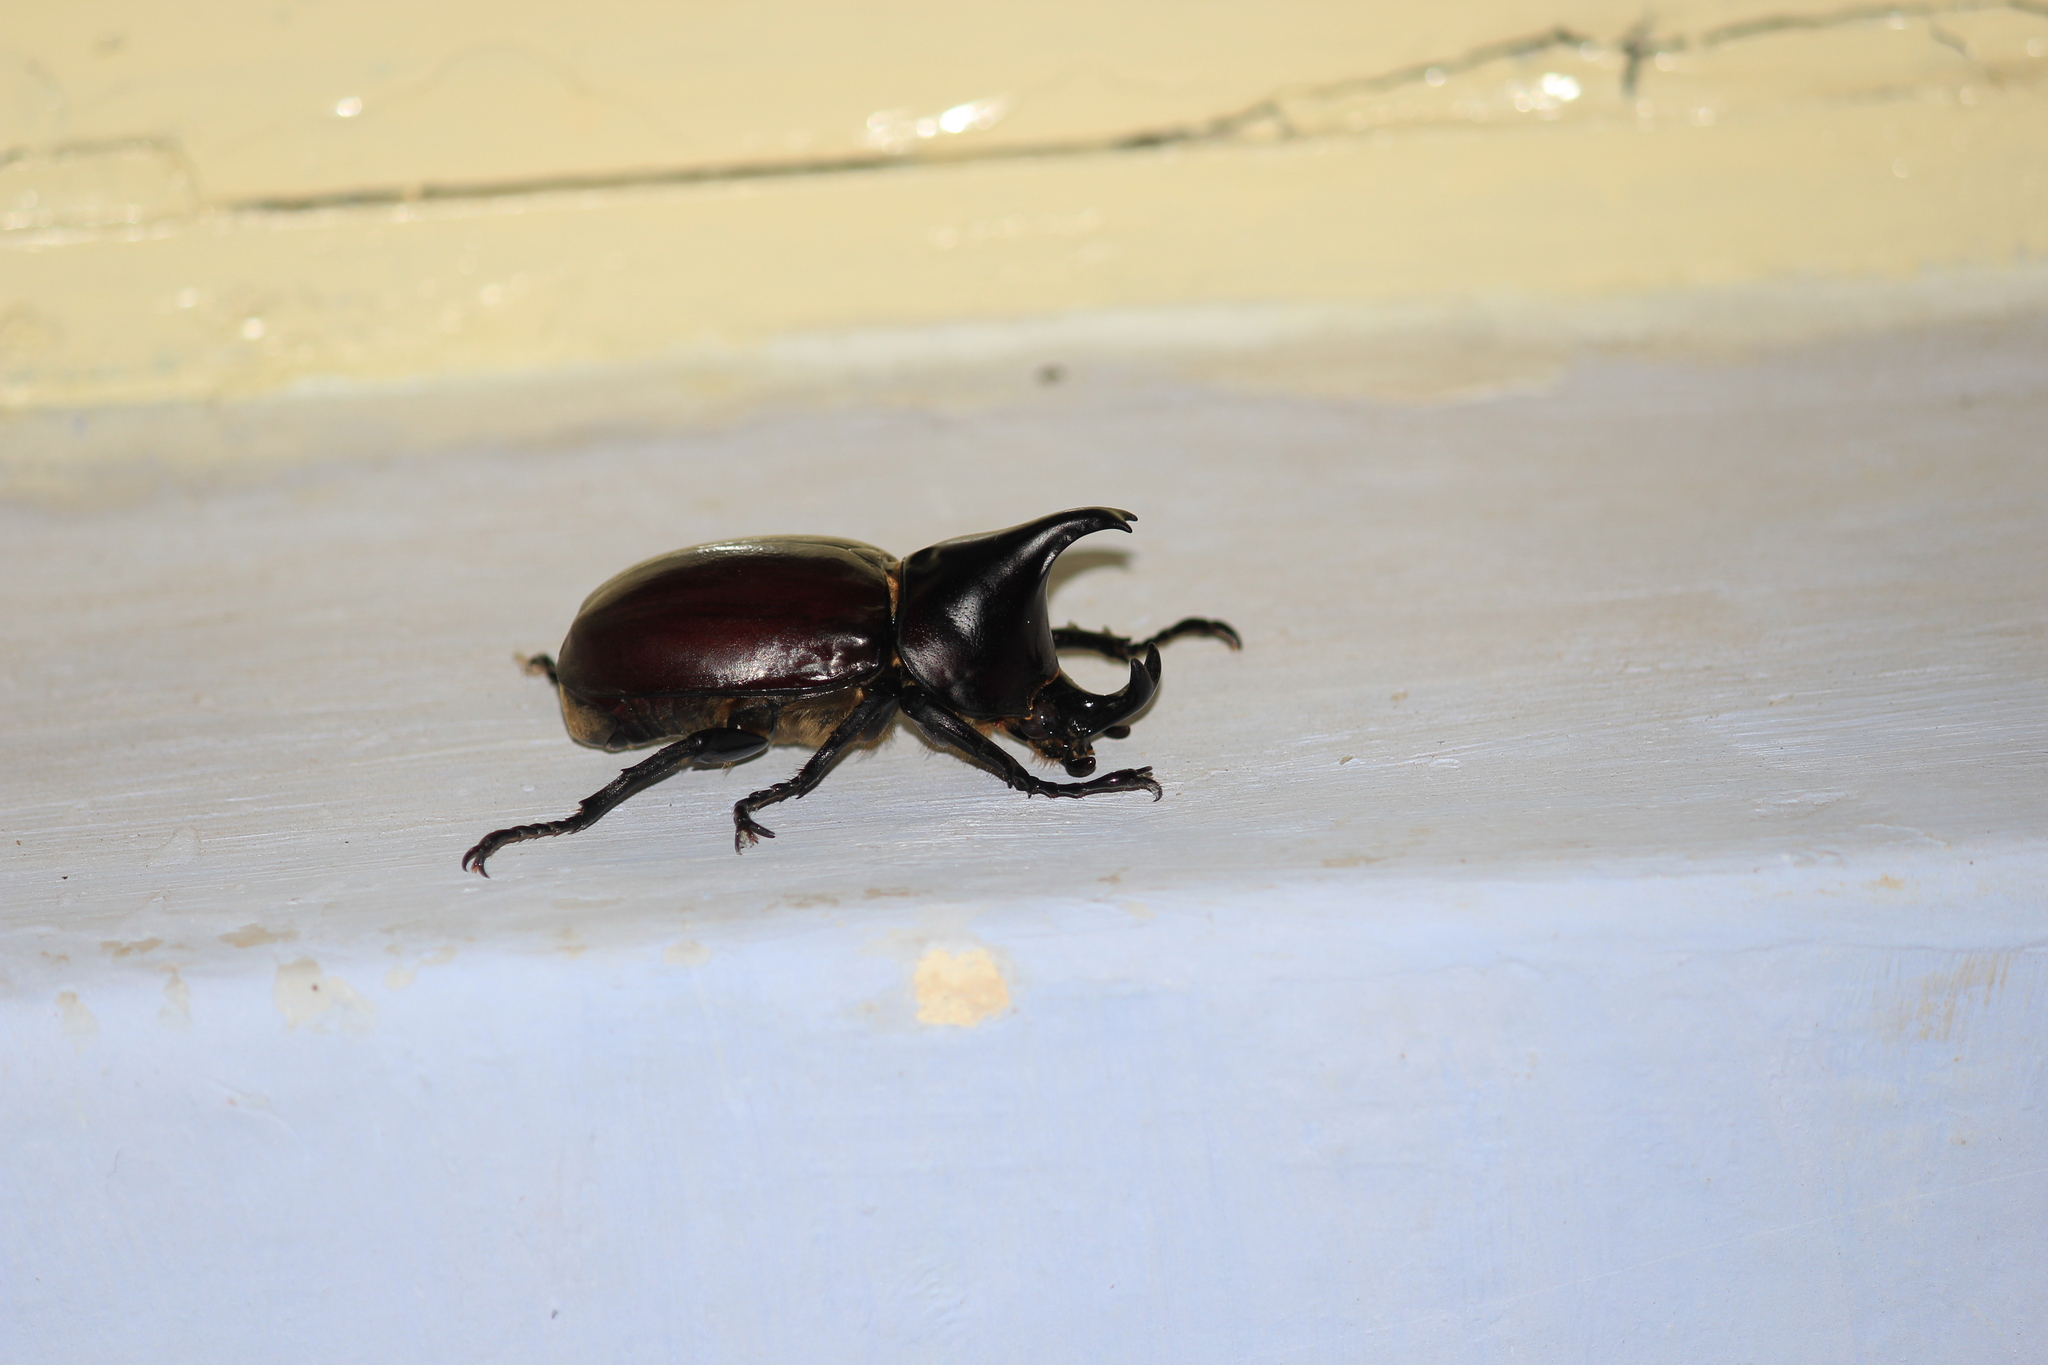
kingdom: Animalia
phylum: Arthropoda
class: Insecta
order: Coleoptera
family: Scarabaeidae
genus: Xylotrupes
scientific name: Xylotrupes taprobanus
